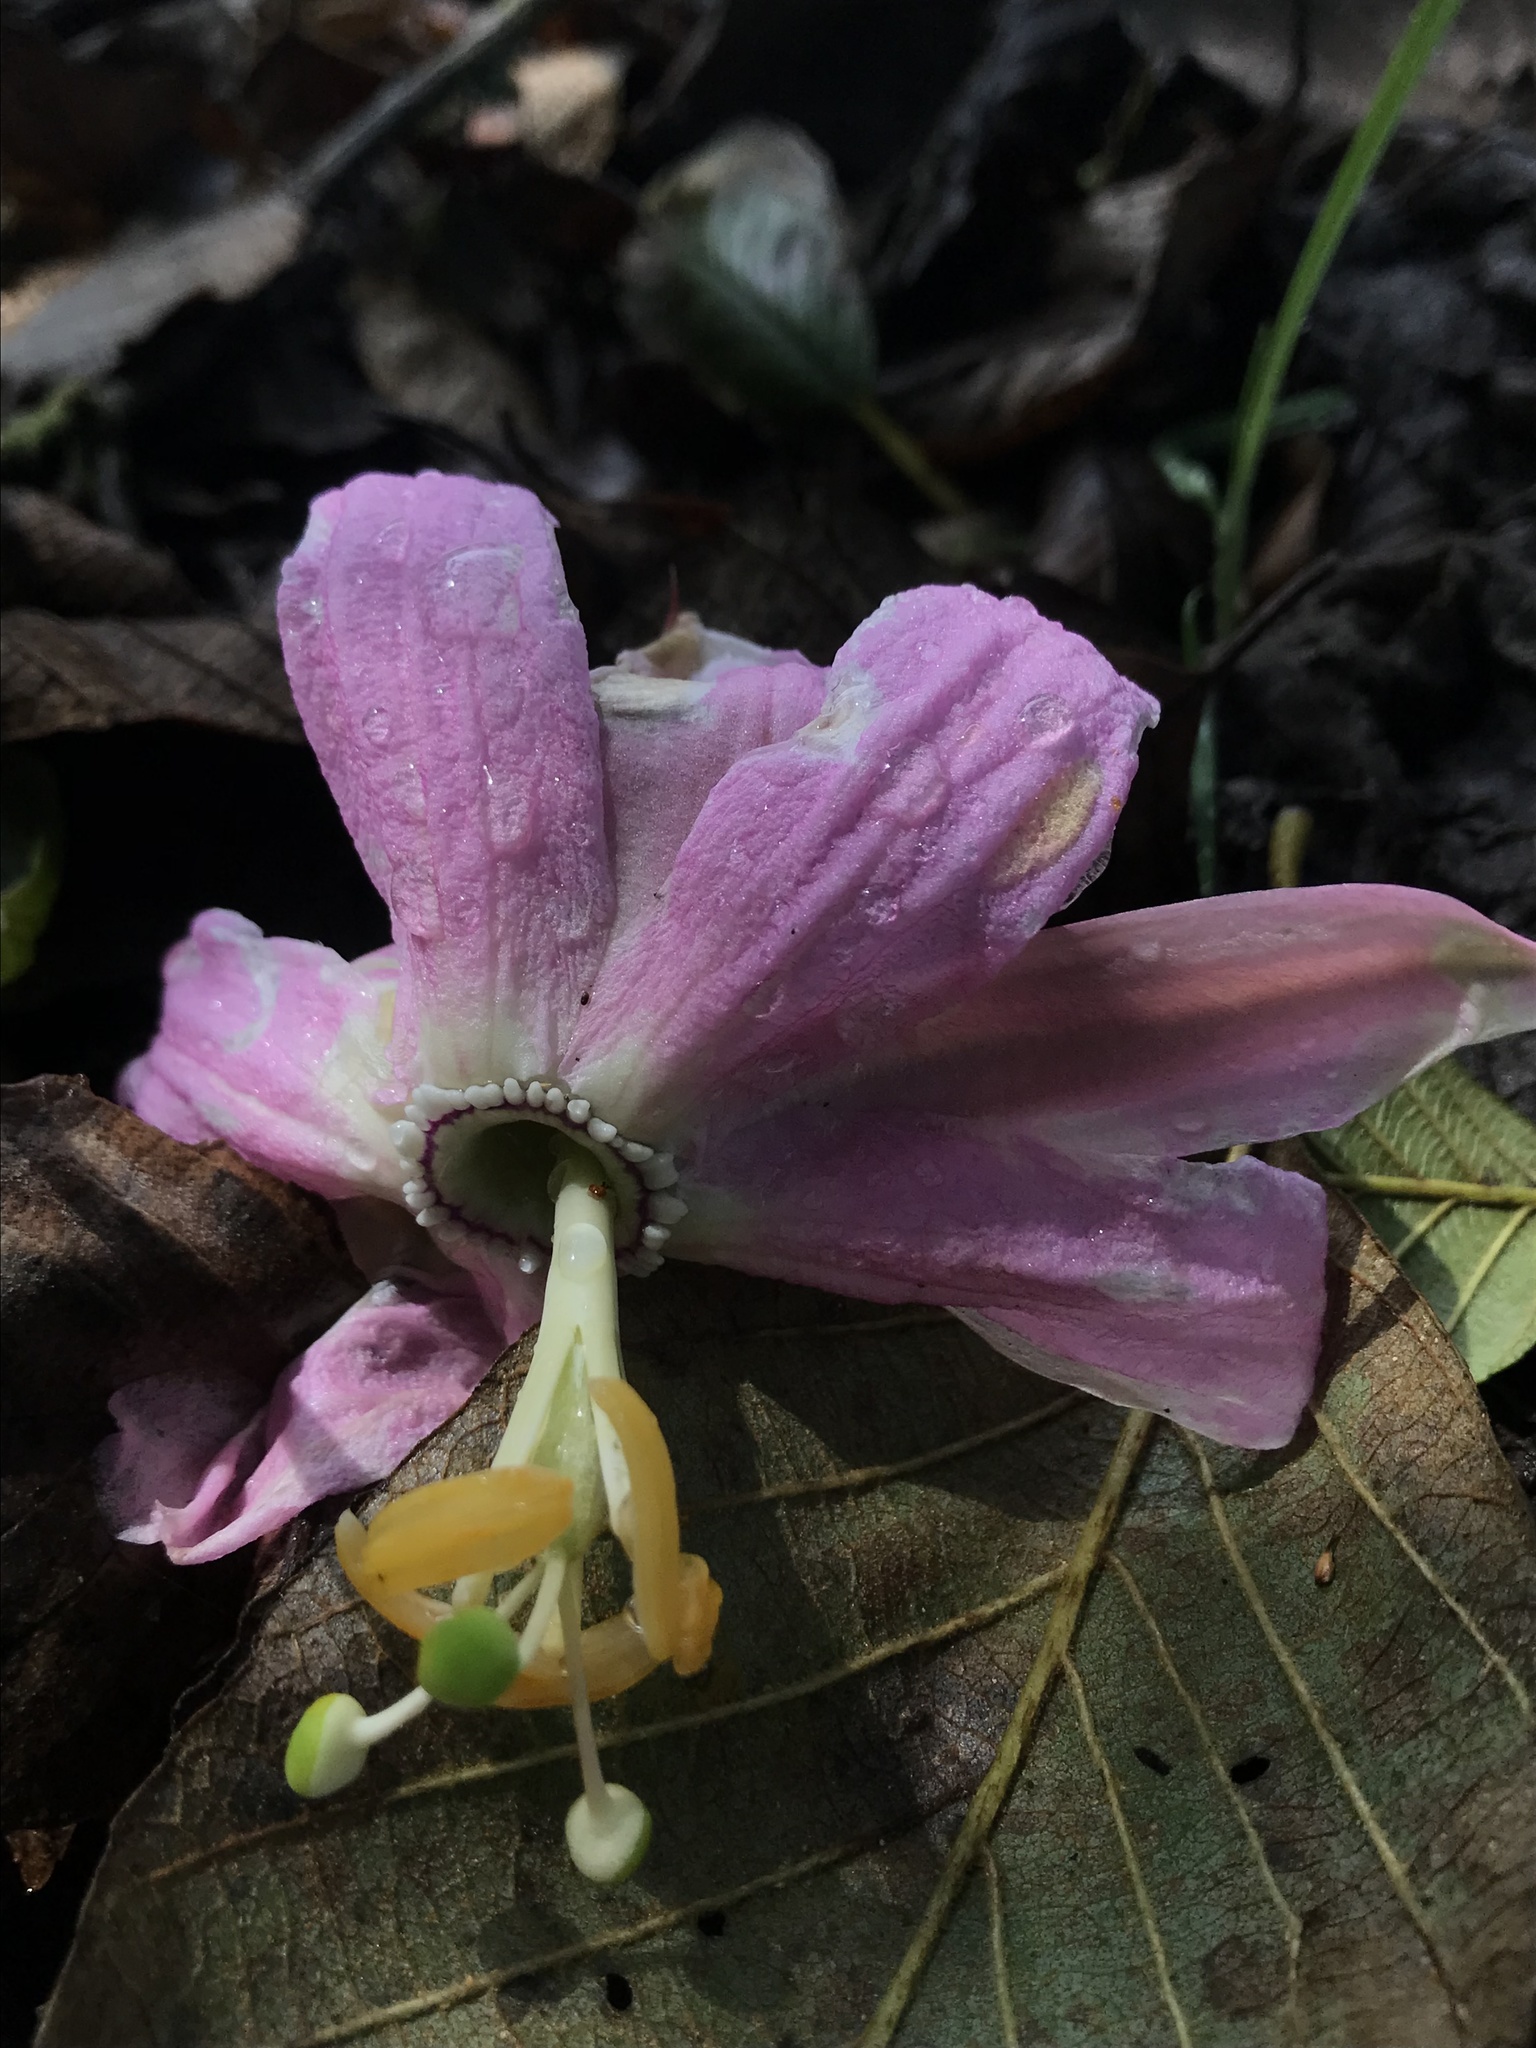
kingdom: Plantae
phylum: Tracheophyta
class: Magnoliopsida
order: Malpighiales
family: Passifloraceae
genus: Passiflora
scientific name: Passiflora tarminiana
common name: Banana poka
